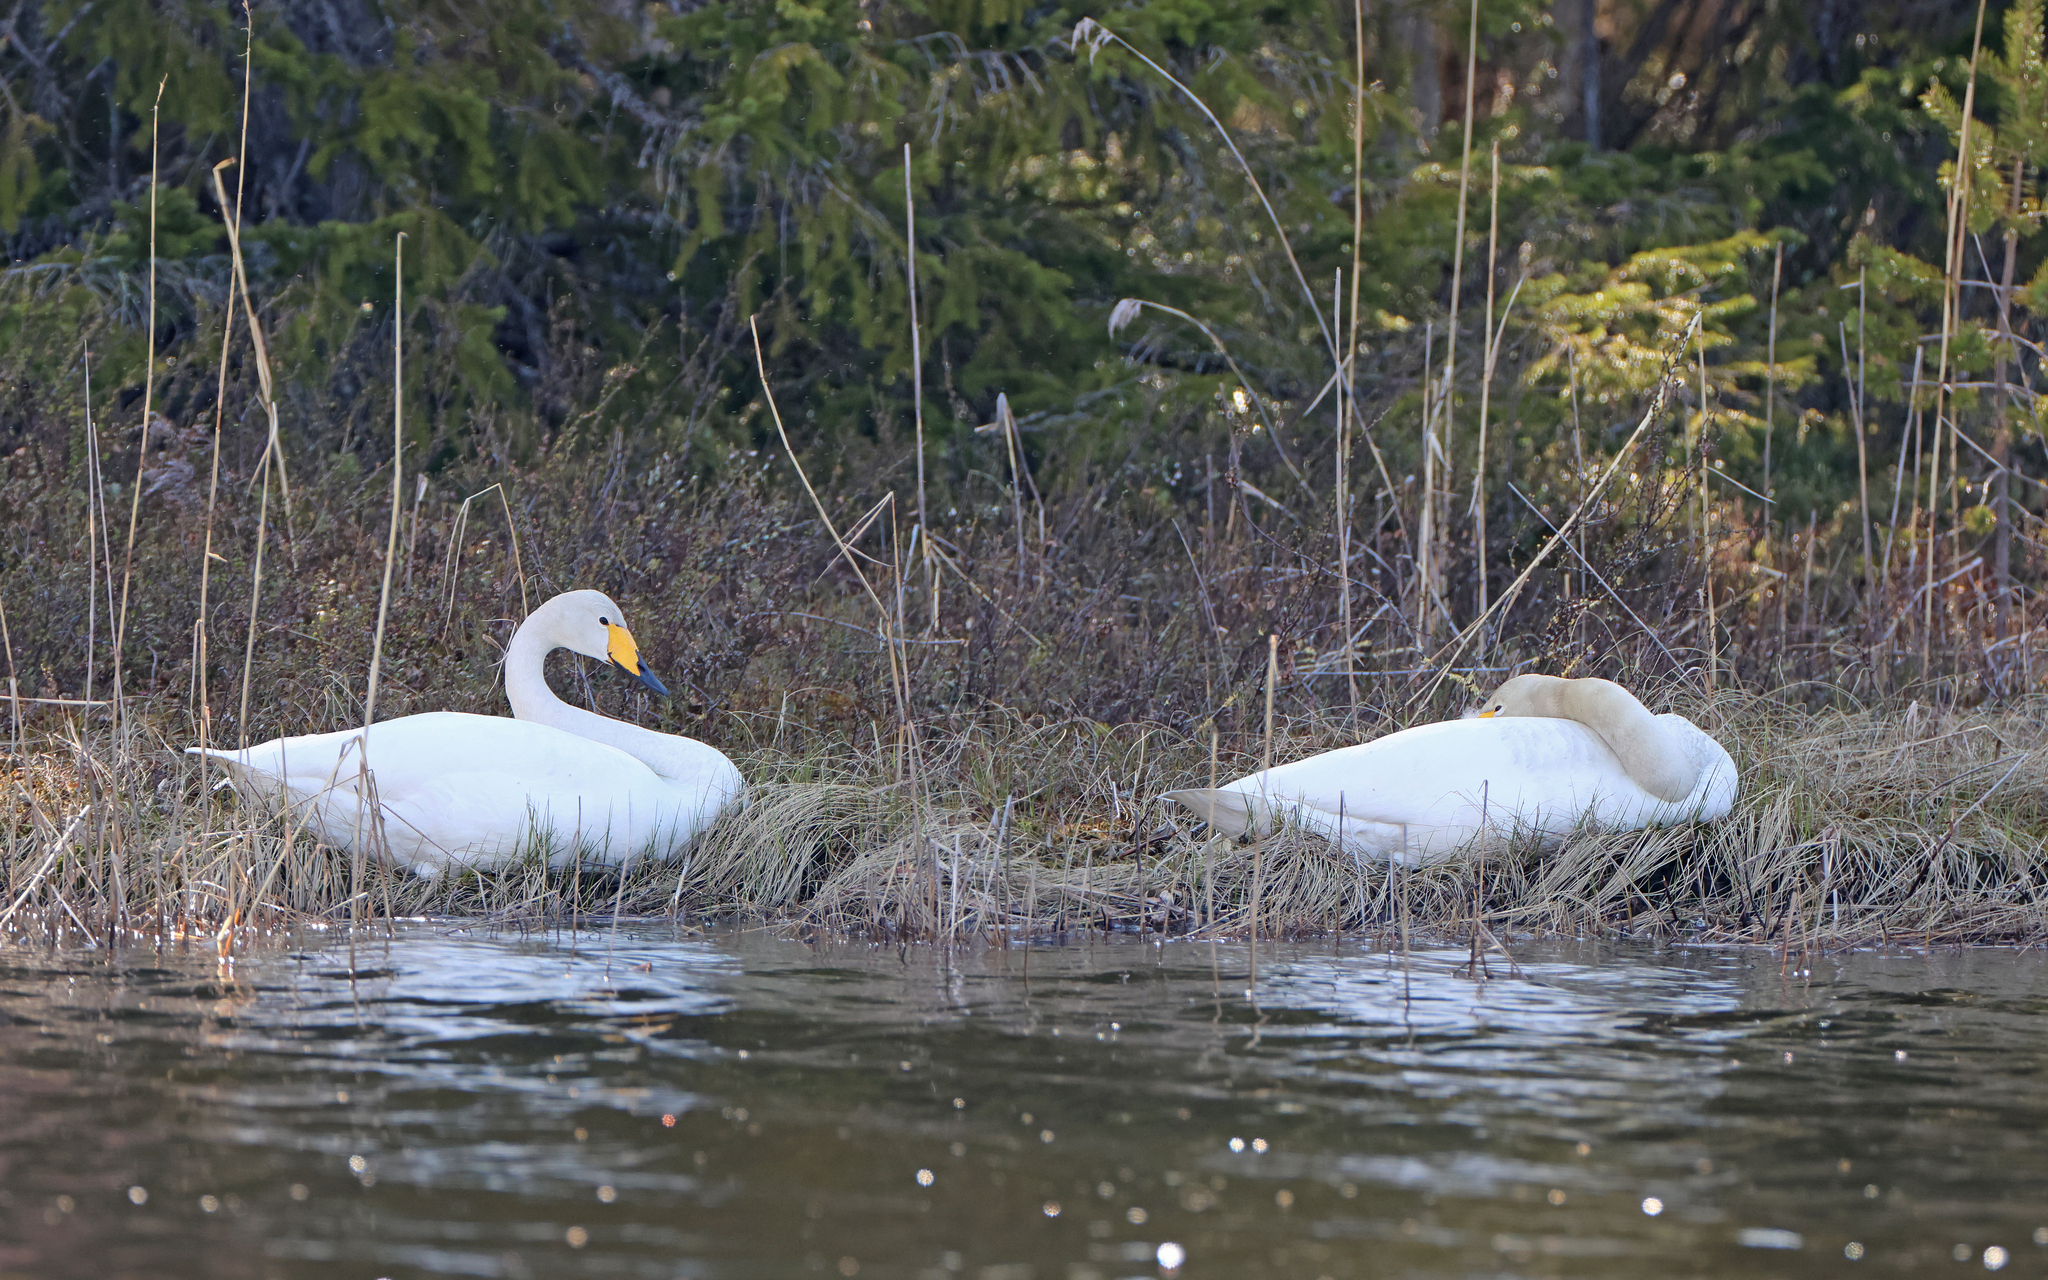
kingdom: Animalia
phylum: Chordata
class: Aves
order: Anseriformes
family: Anatidae
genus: Cygnus
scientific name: Cygnus cygnus
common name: Whooper swan
